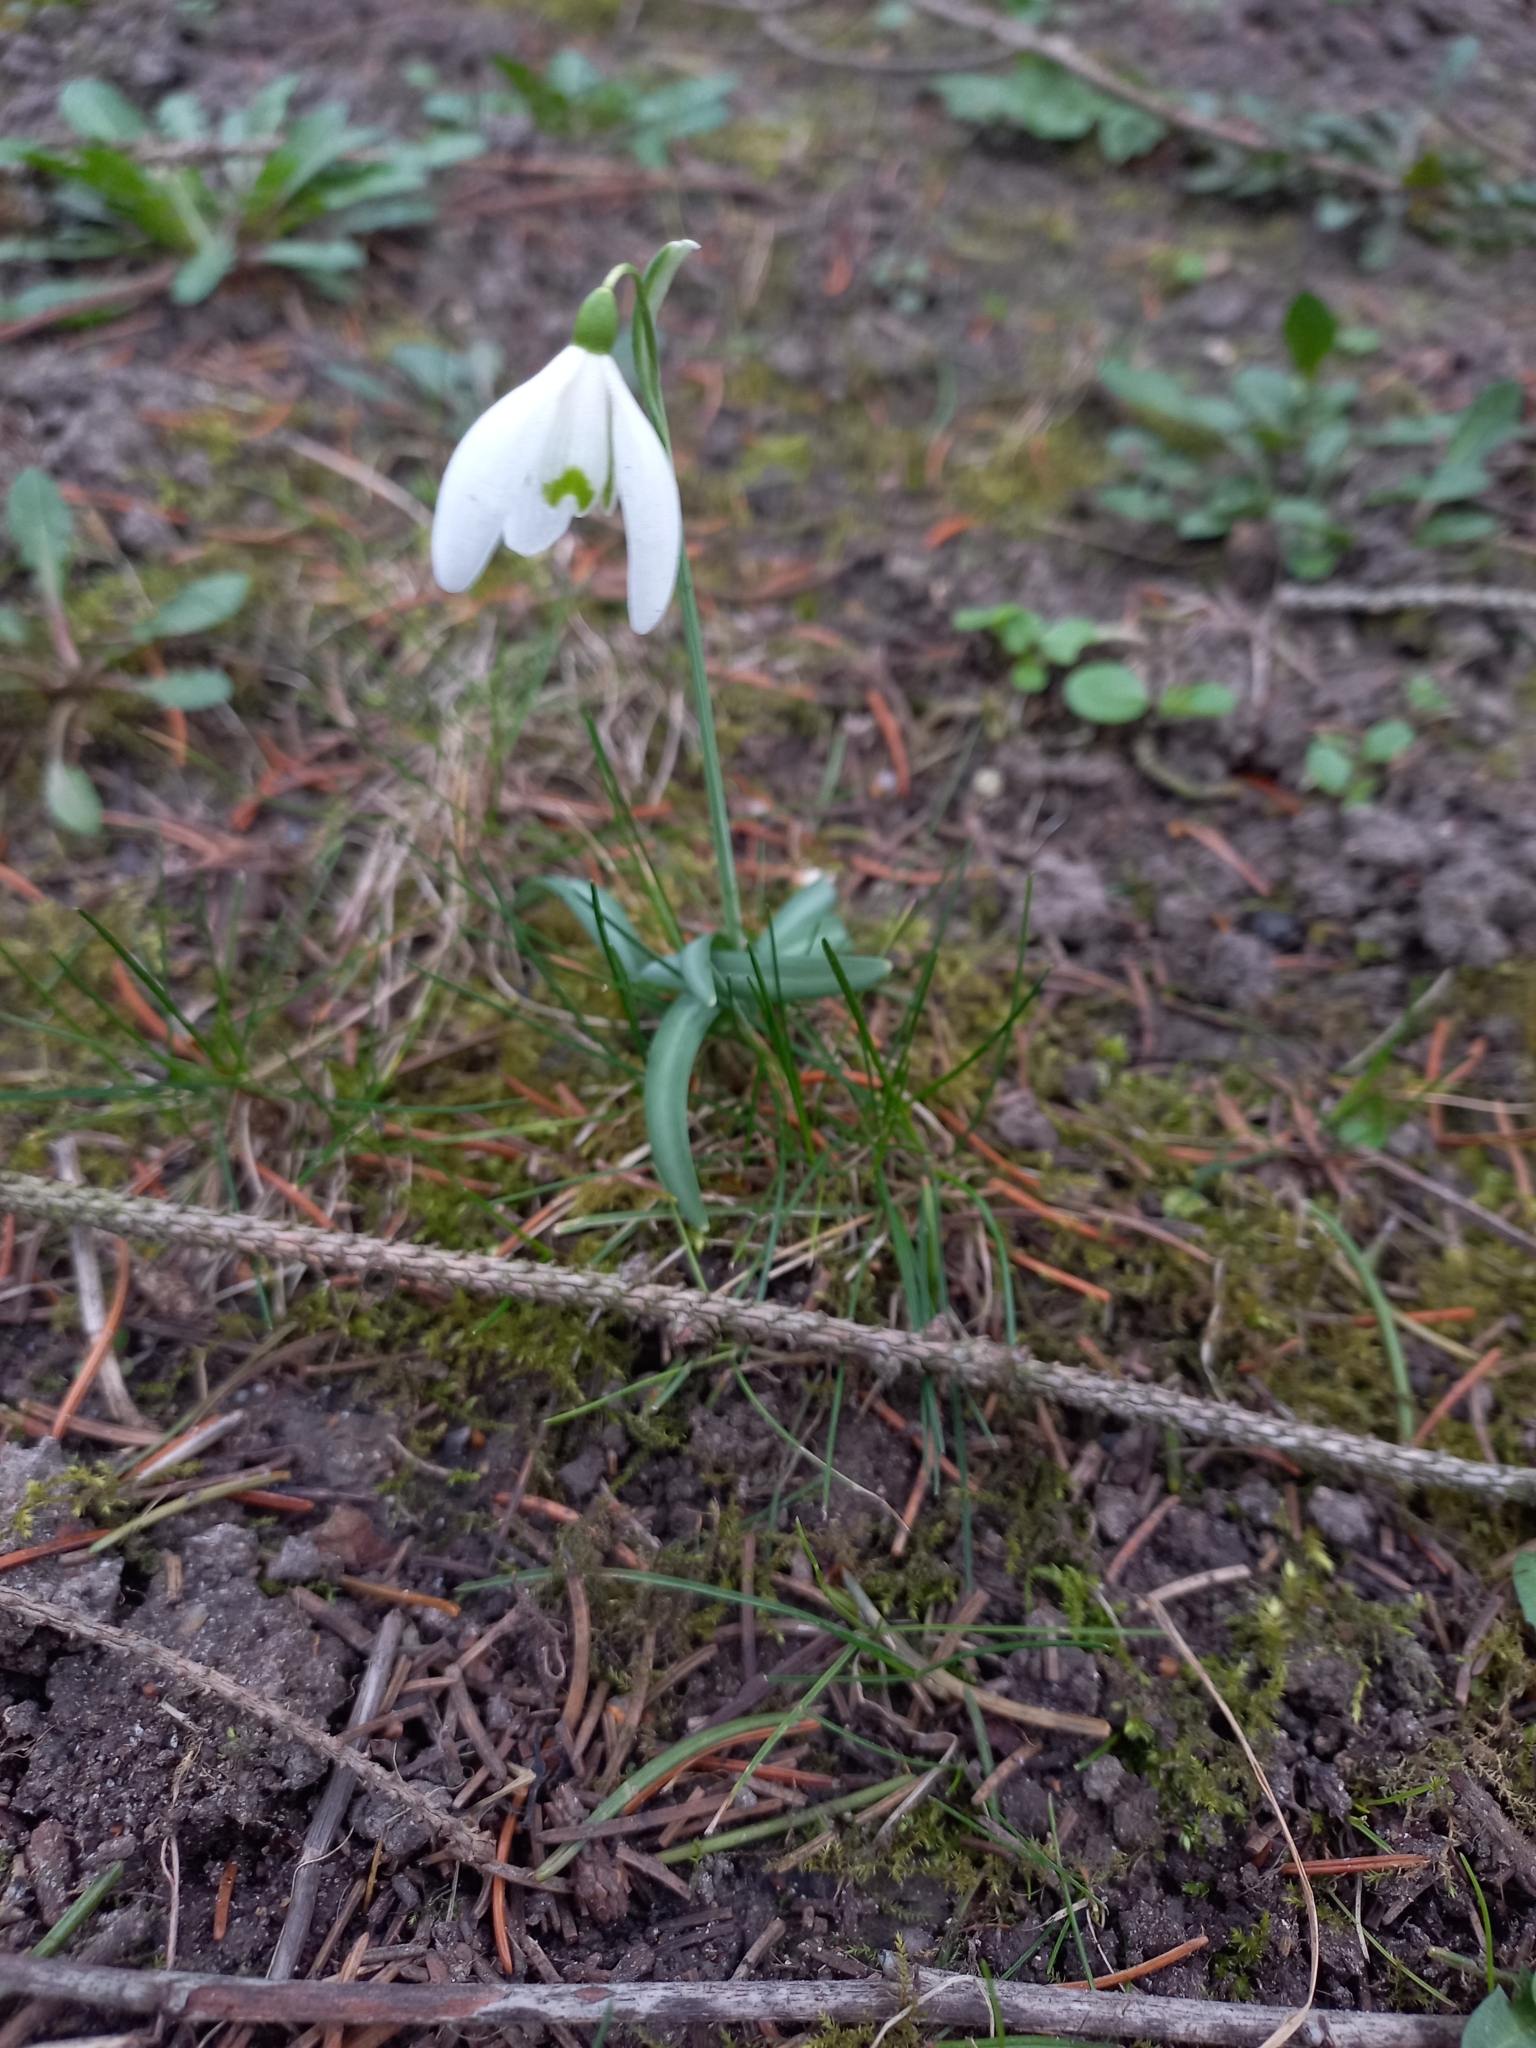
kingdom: Plantae
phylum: Tracheophyta
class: Liliopsida
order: Asparagales
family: Amaryllidaceae
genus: Galanthus
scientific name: Galanthus nivalis
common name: Snowdrop
